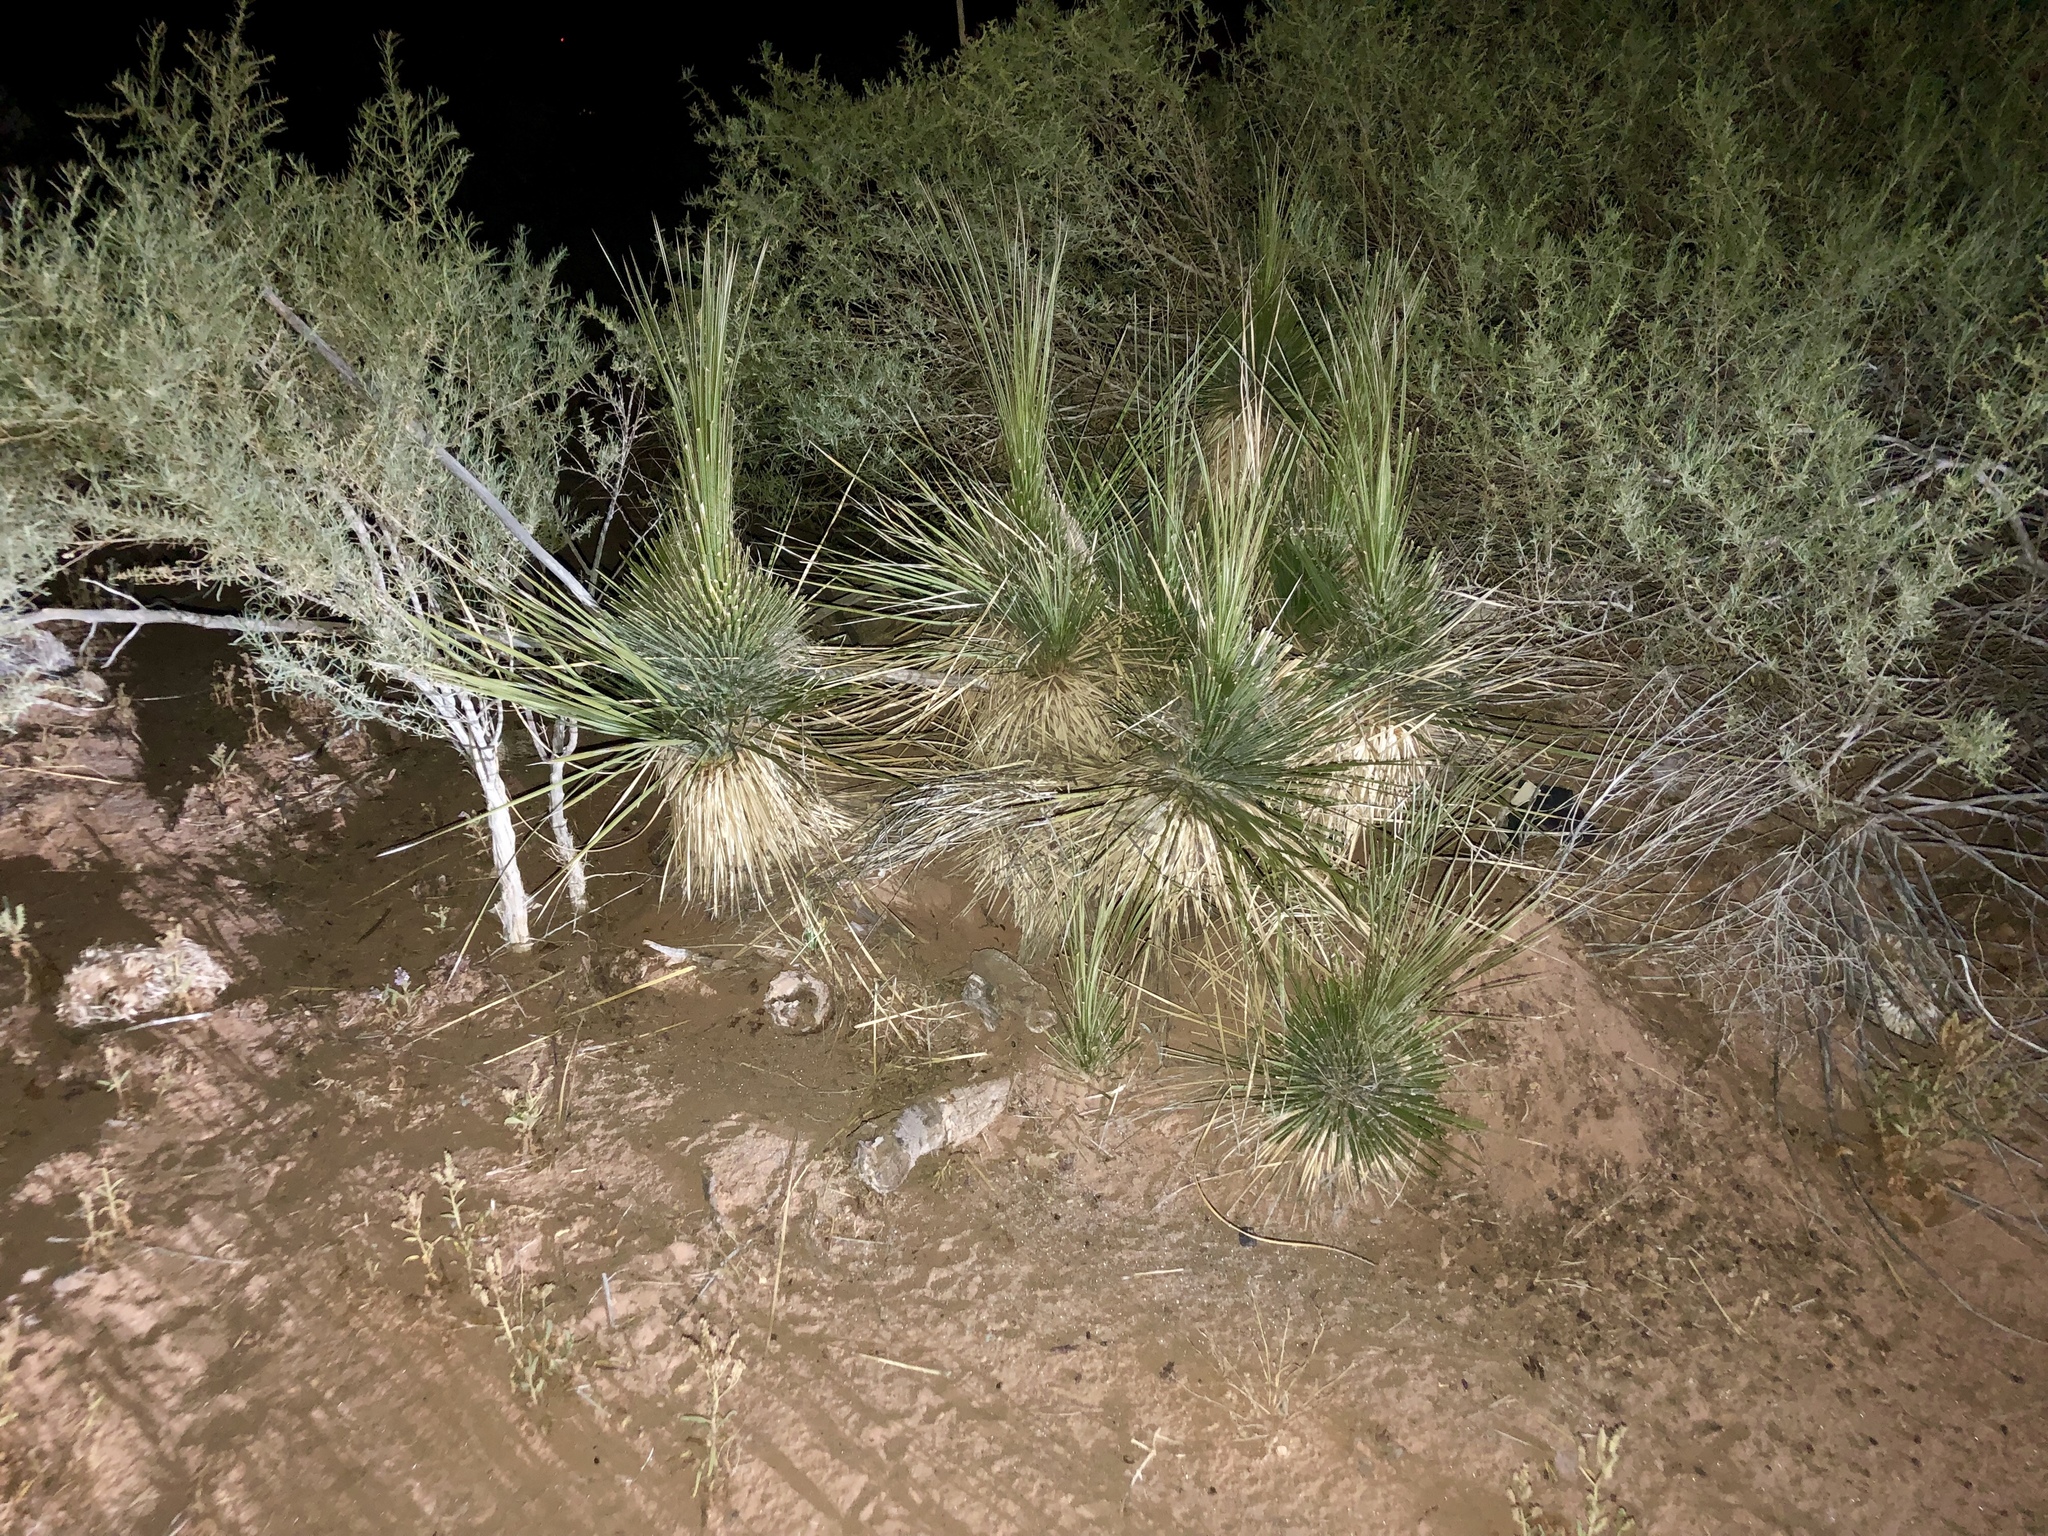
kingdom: Plantae
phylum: Tracheophyta
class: Liliopsida
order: Asparagales
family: Asparagaceae
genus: Yucca
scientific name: Yucca elata
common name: Palmella
